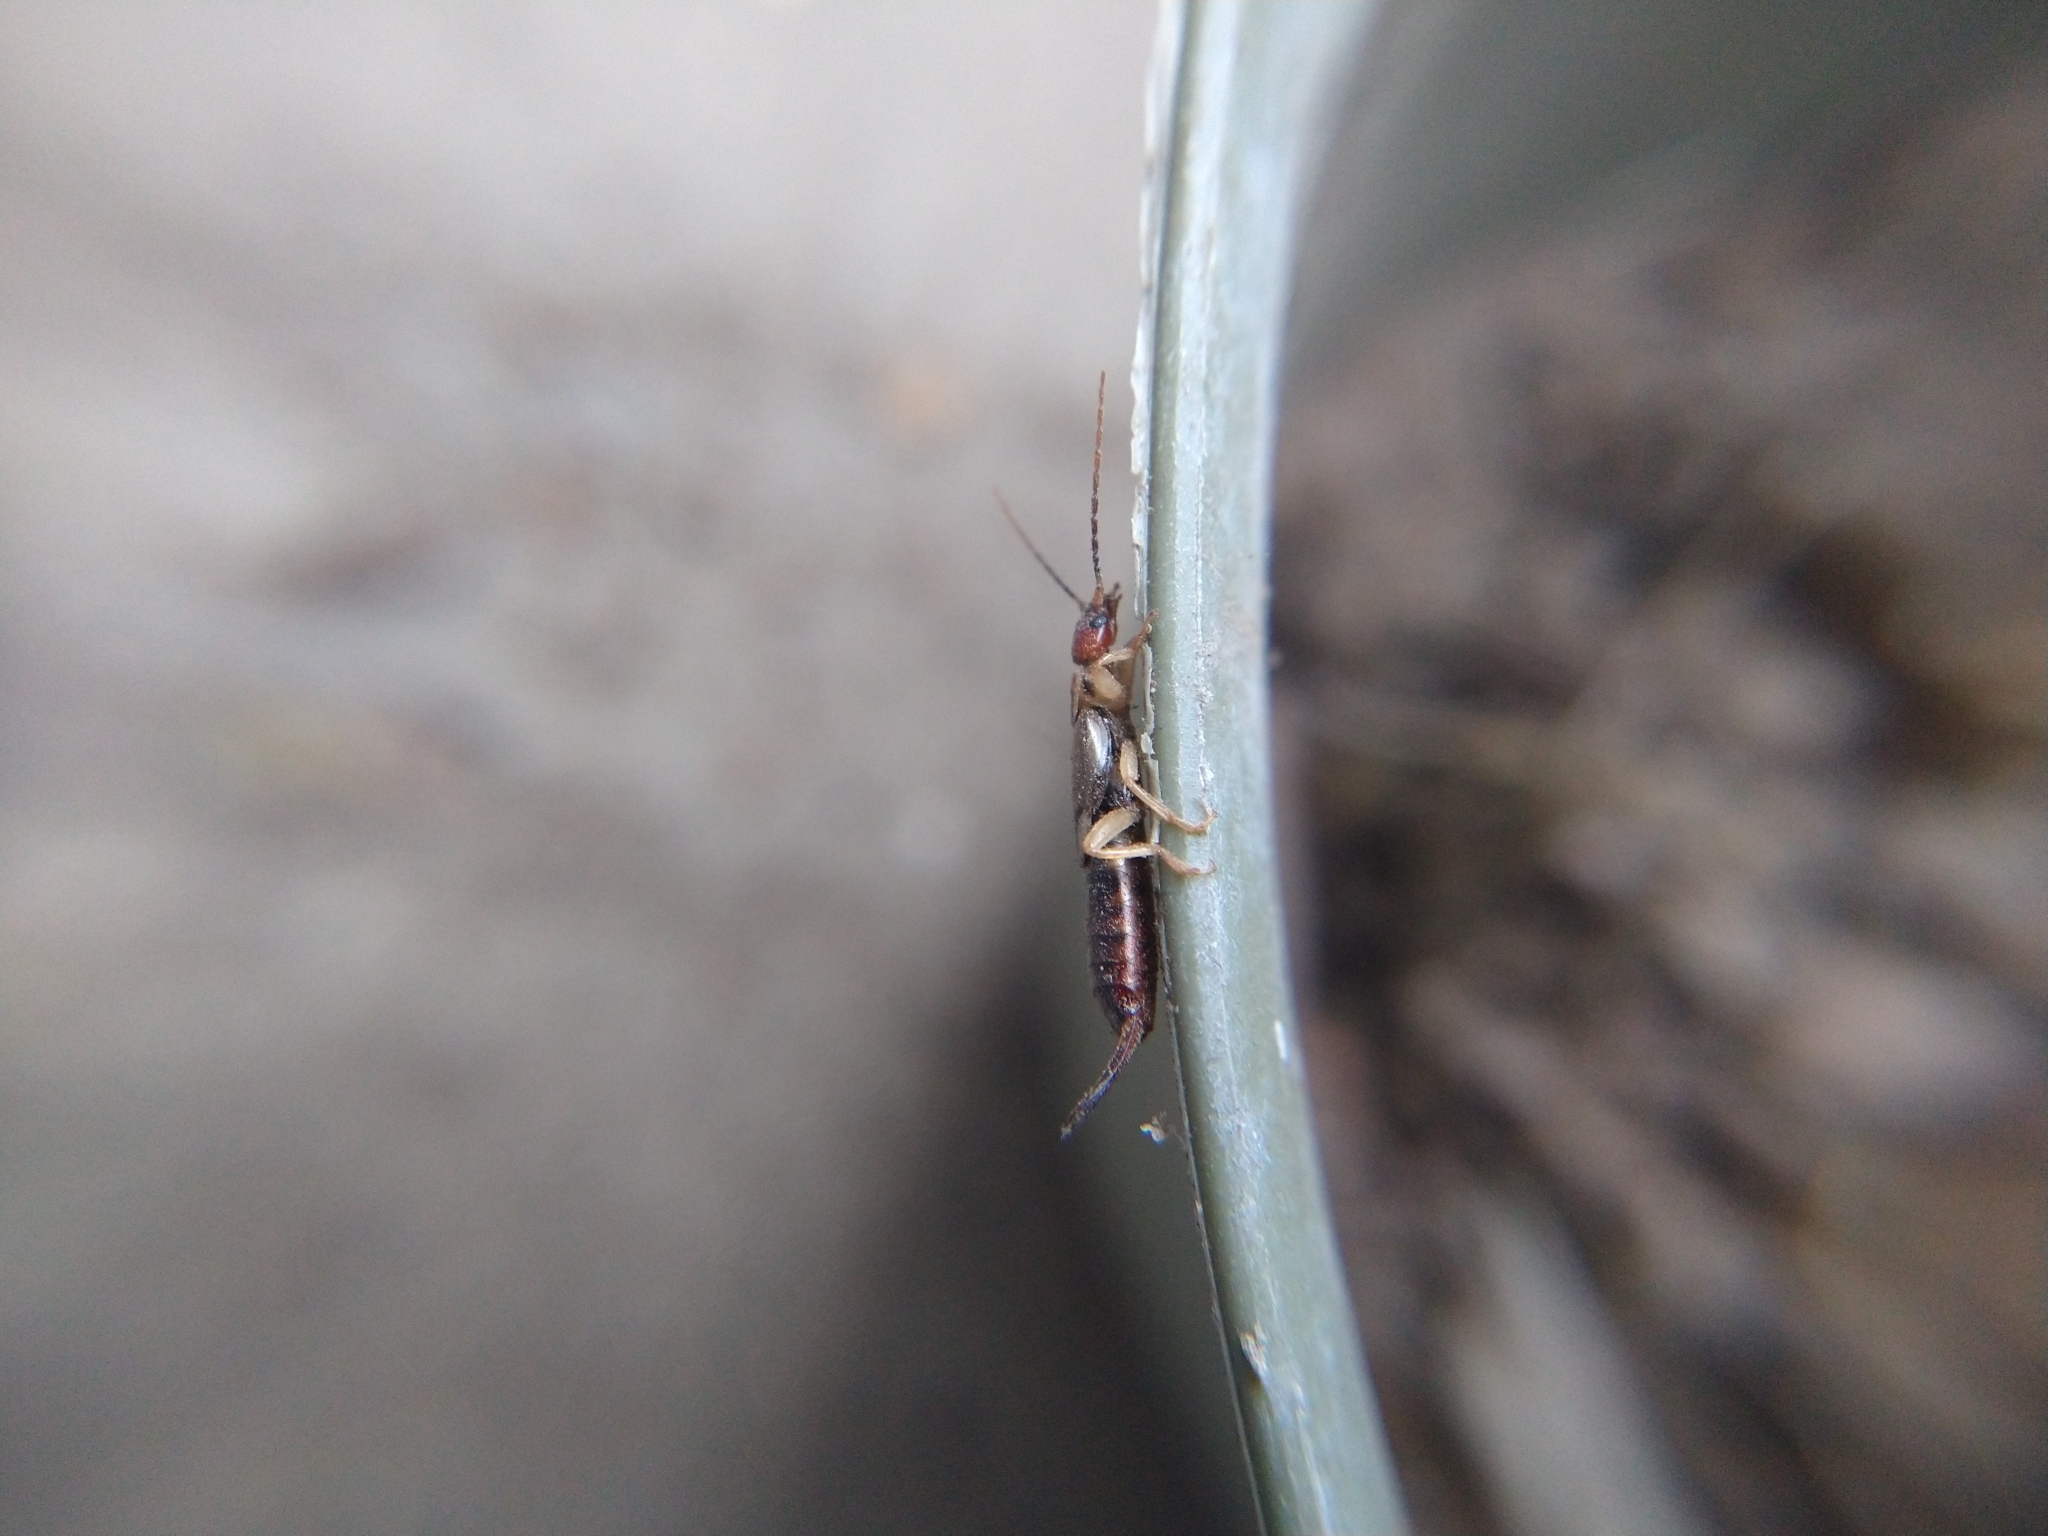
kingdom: Animalia
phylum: Arthropoda
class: Insecta
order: Dermaptera
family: Forficulidae
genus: Forficula
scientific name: Forficula
